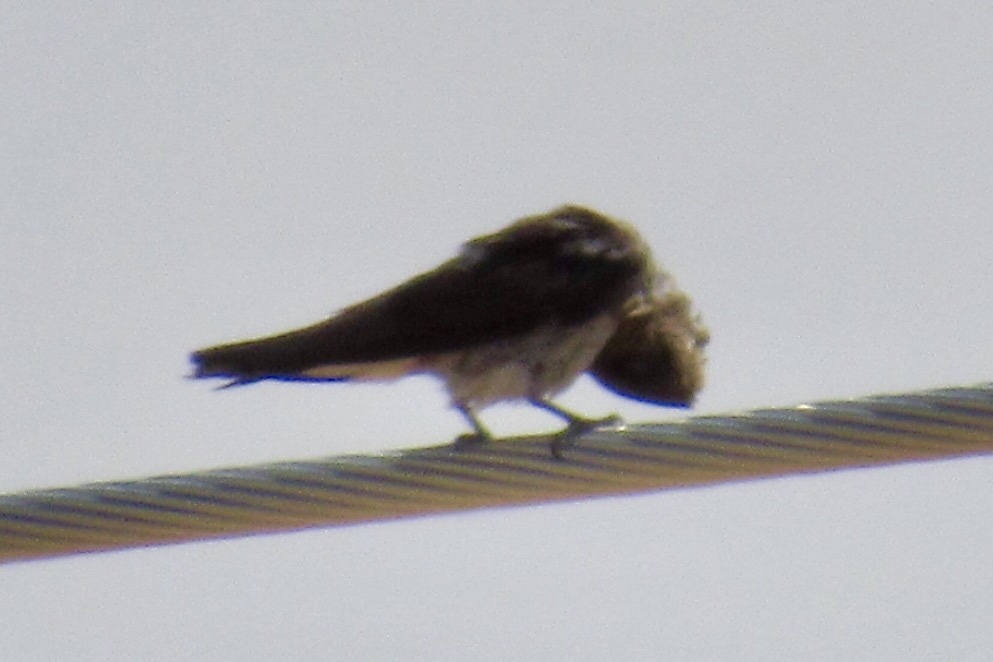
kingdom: Animalia
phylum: Chordata
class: Aves
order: Passeriformes
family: Hirundinidae
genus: Progne
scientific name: Progne subis
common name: Purple martin
